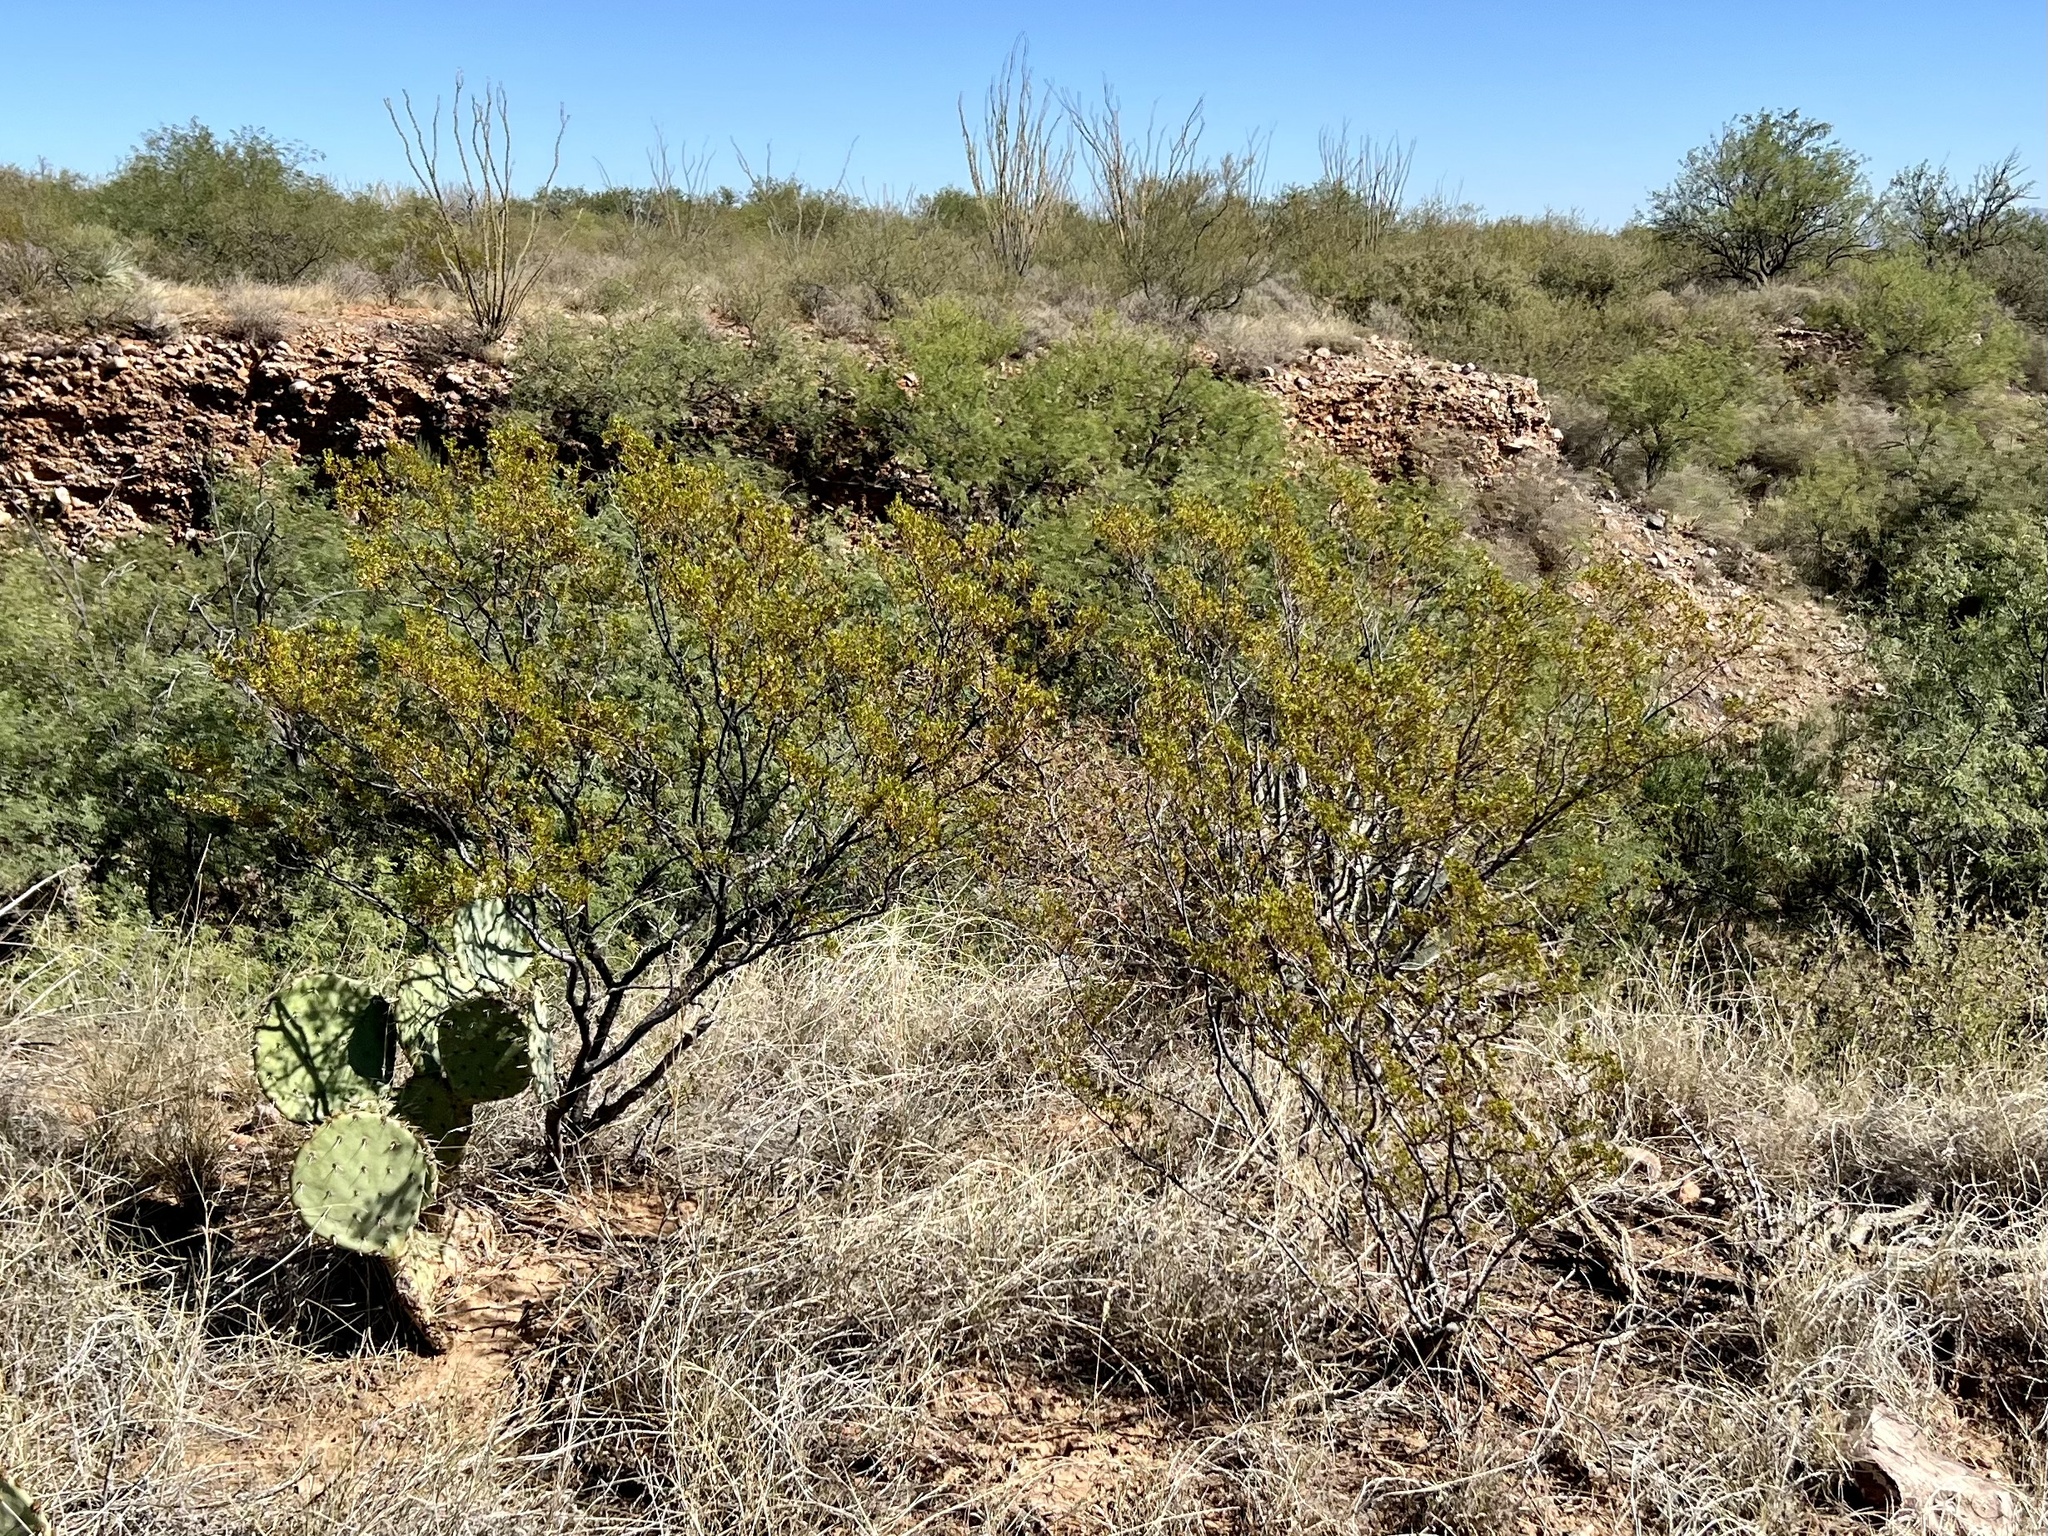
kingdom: Plantae
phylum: Tracheophyta
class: Magnoliopsida
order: Zygophyllales
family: Zygophyllaceae
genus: Larrea
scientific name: Larrea tridentata
